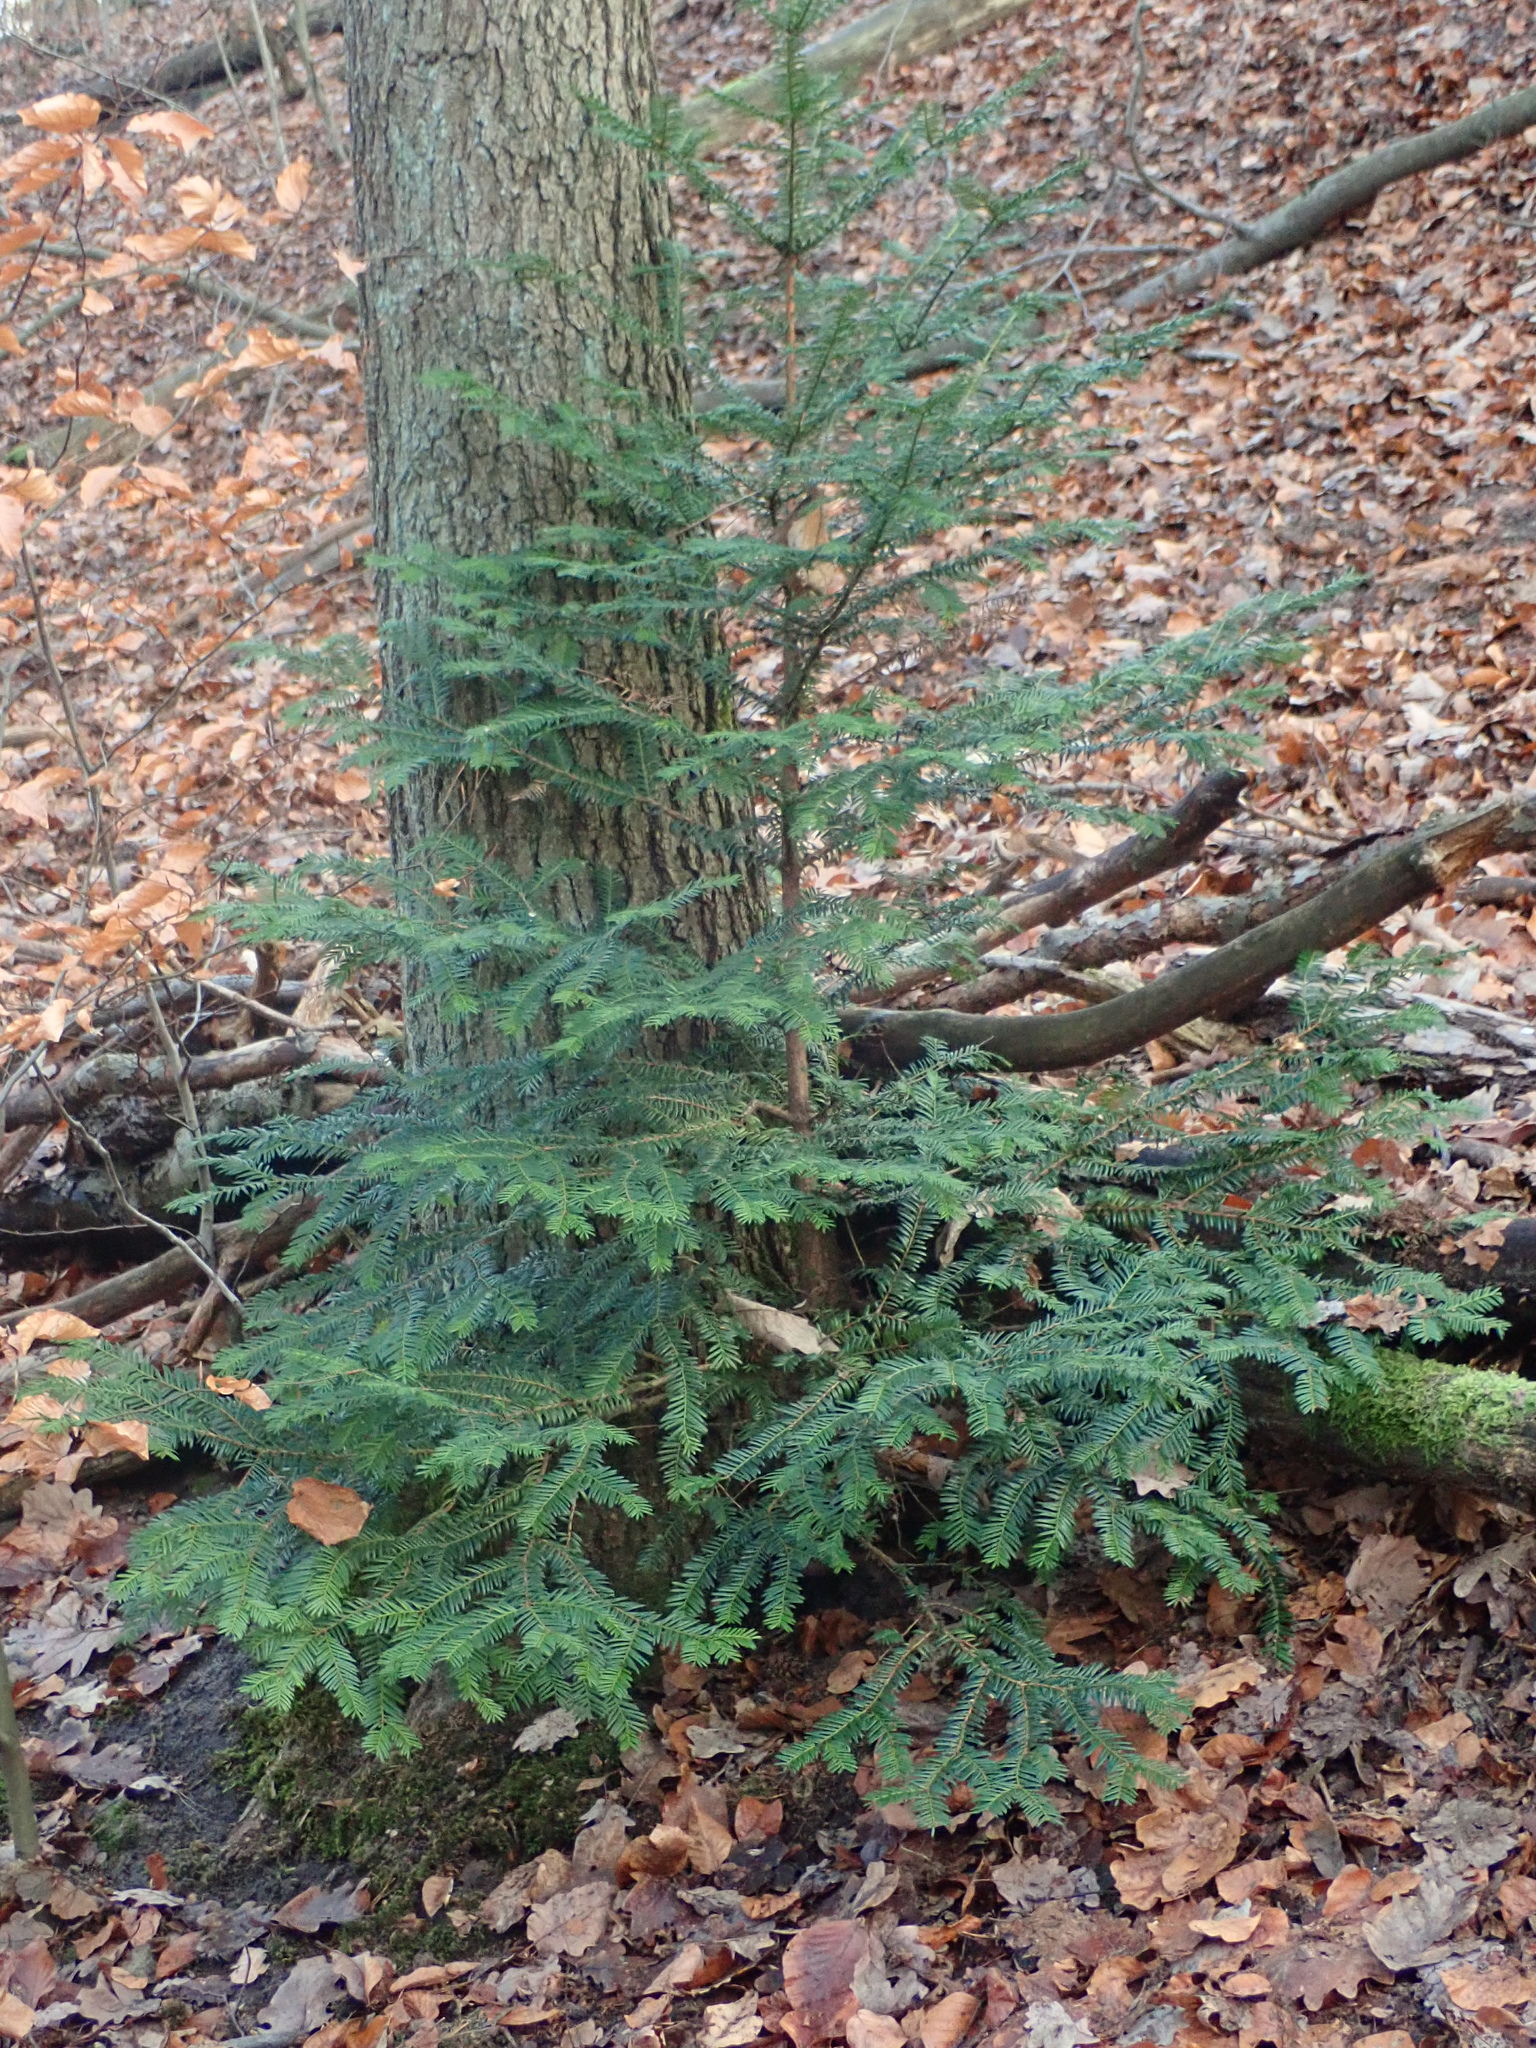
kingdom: Plantae
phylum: Tracheophyta
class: Pinopsida
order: Pinales
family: Taxaceae
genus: Taxus
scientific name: Taxus baccata
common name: Yew
